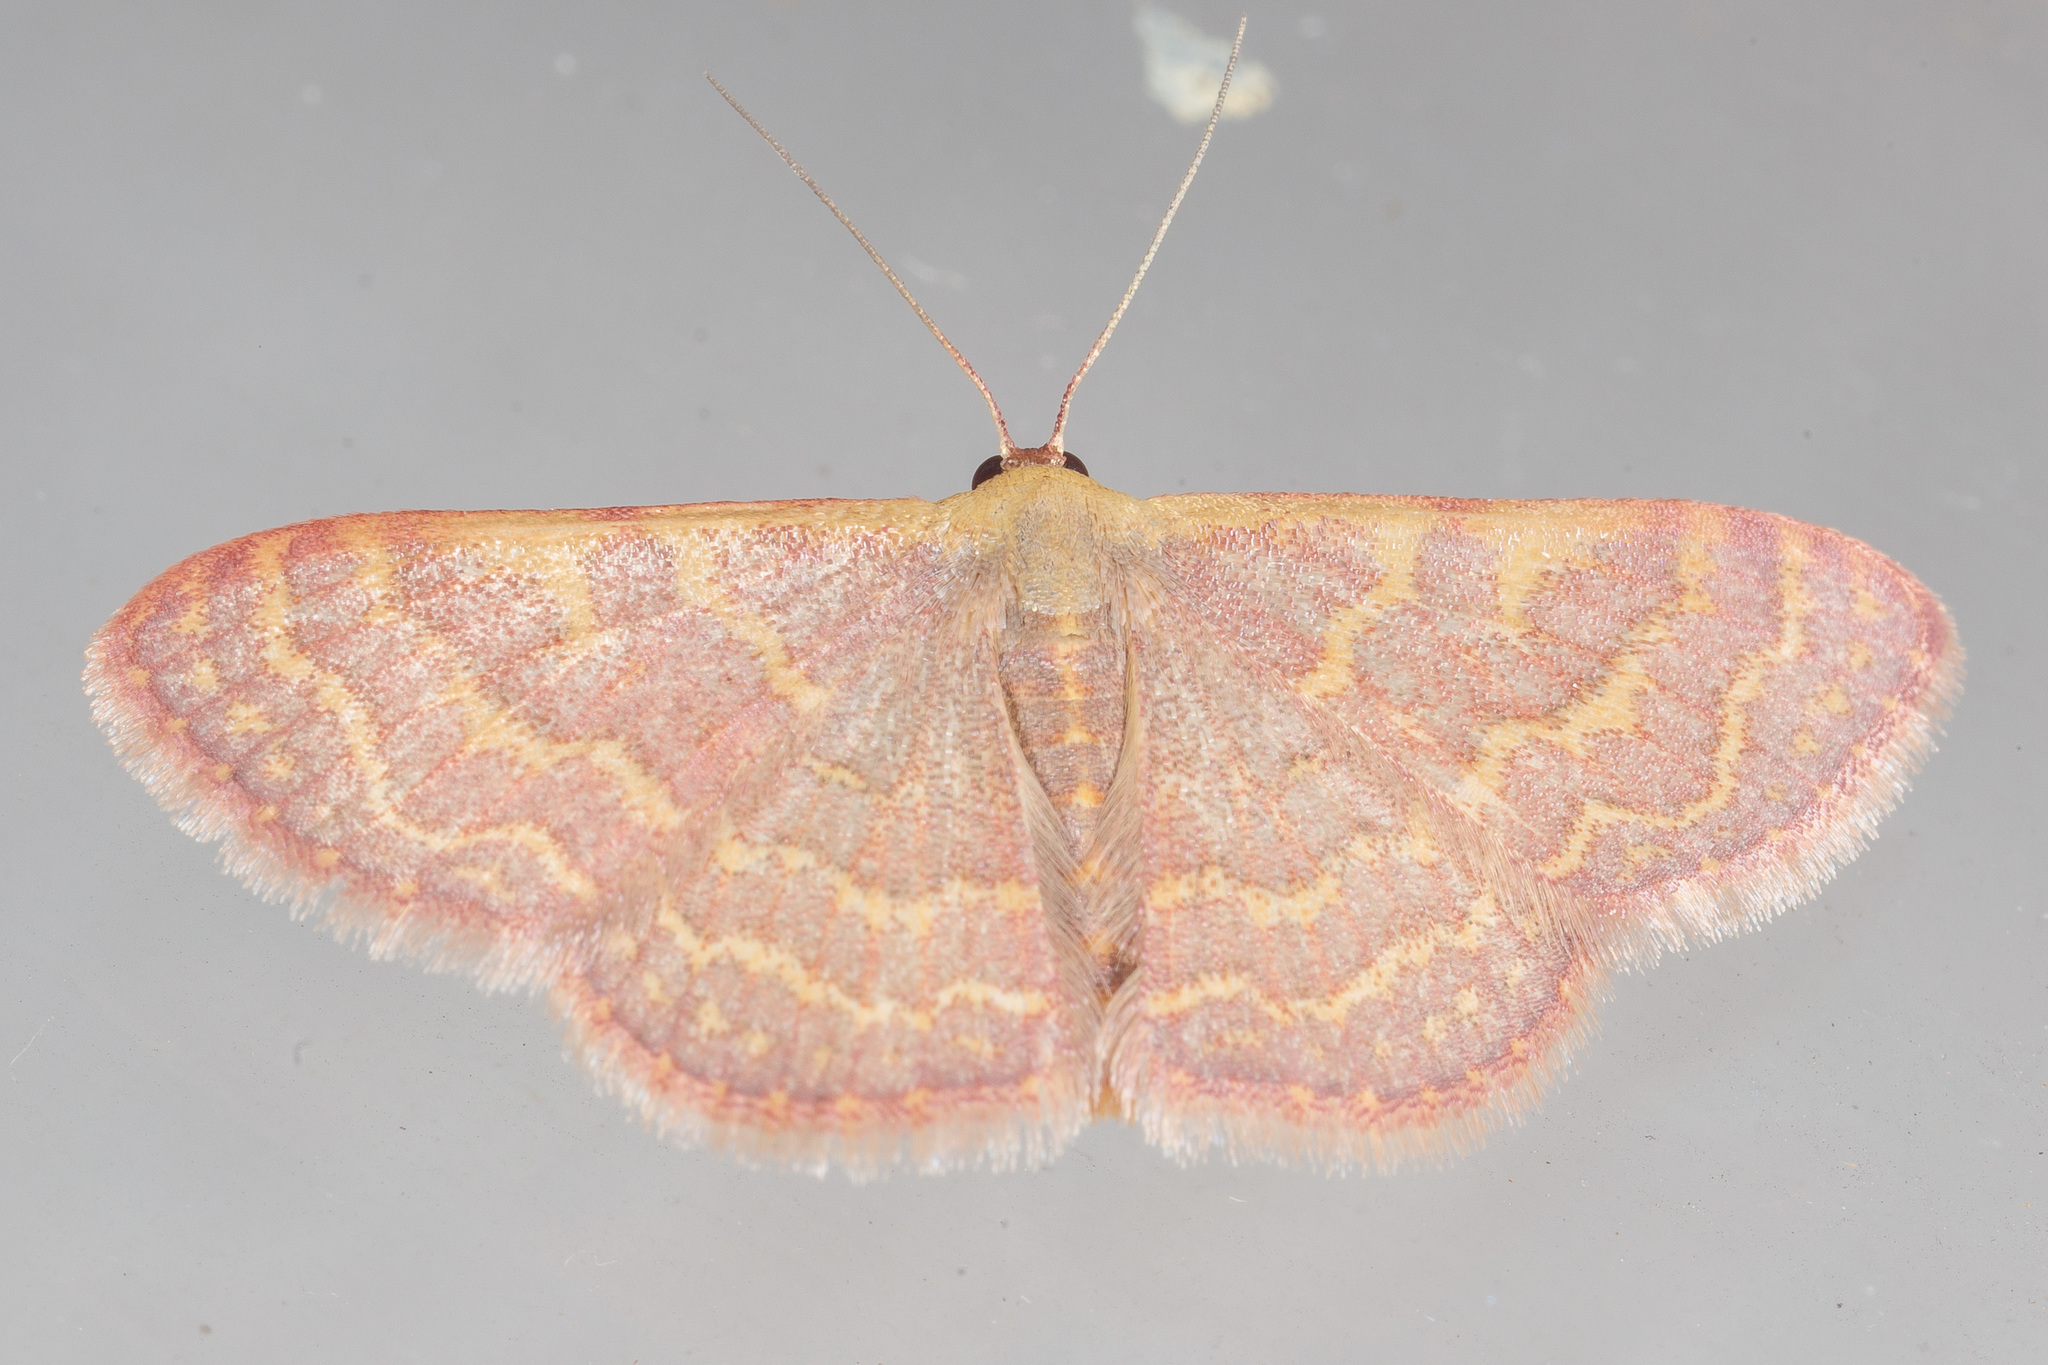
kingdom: Animalia
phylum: Arthropoda
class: Insecta
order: Lepidoptera
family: Geometridae
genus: Leptostales
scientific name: Leptostales pannaria
